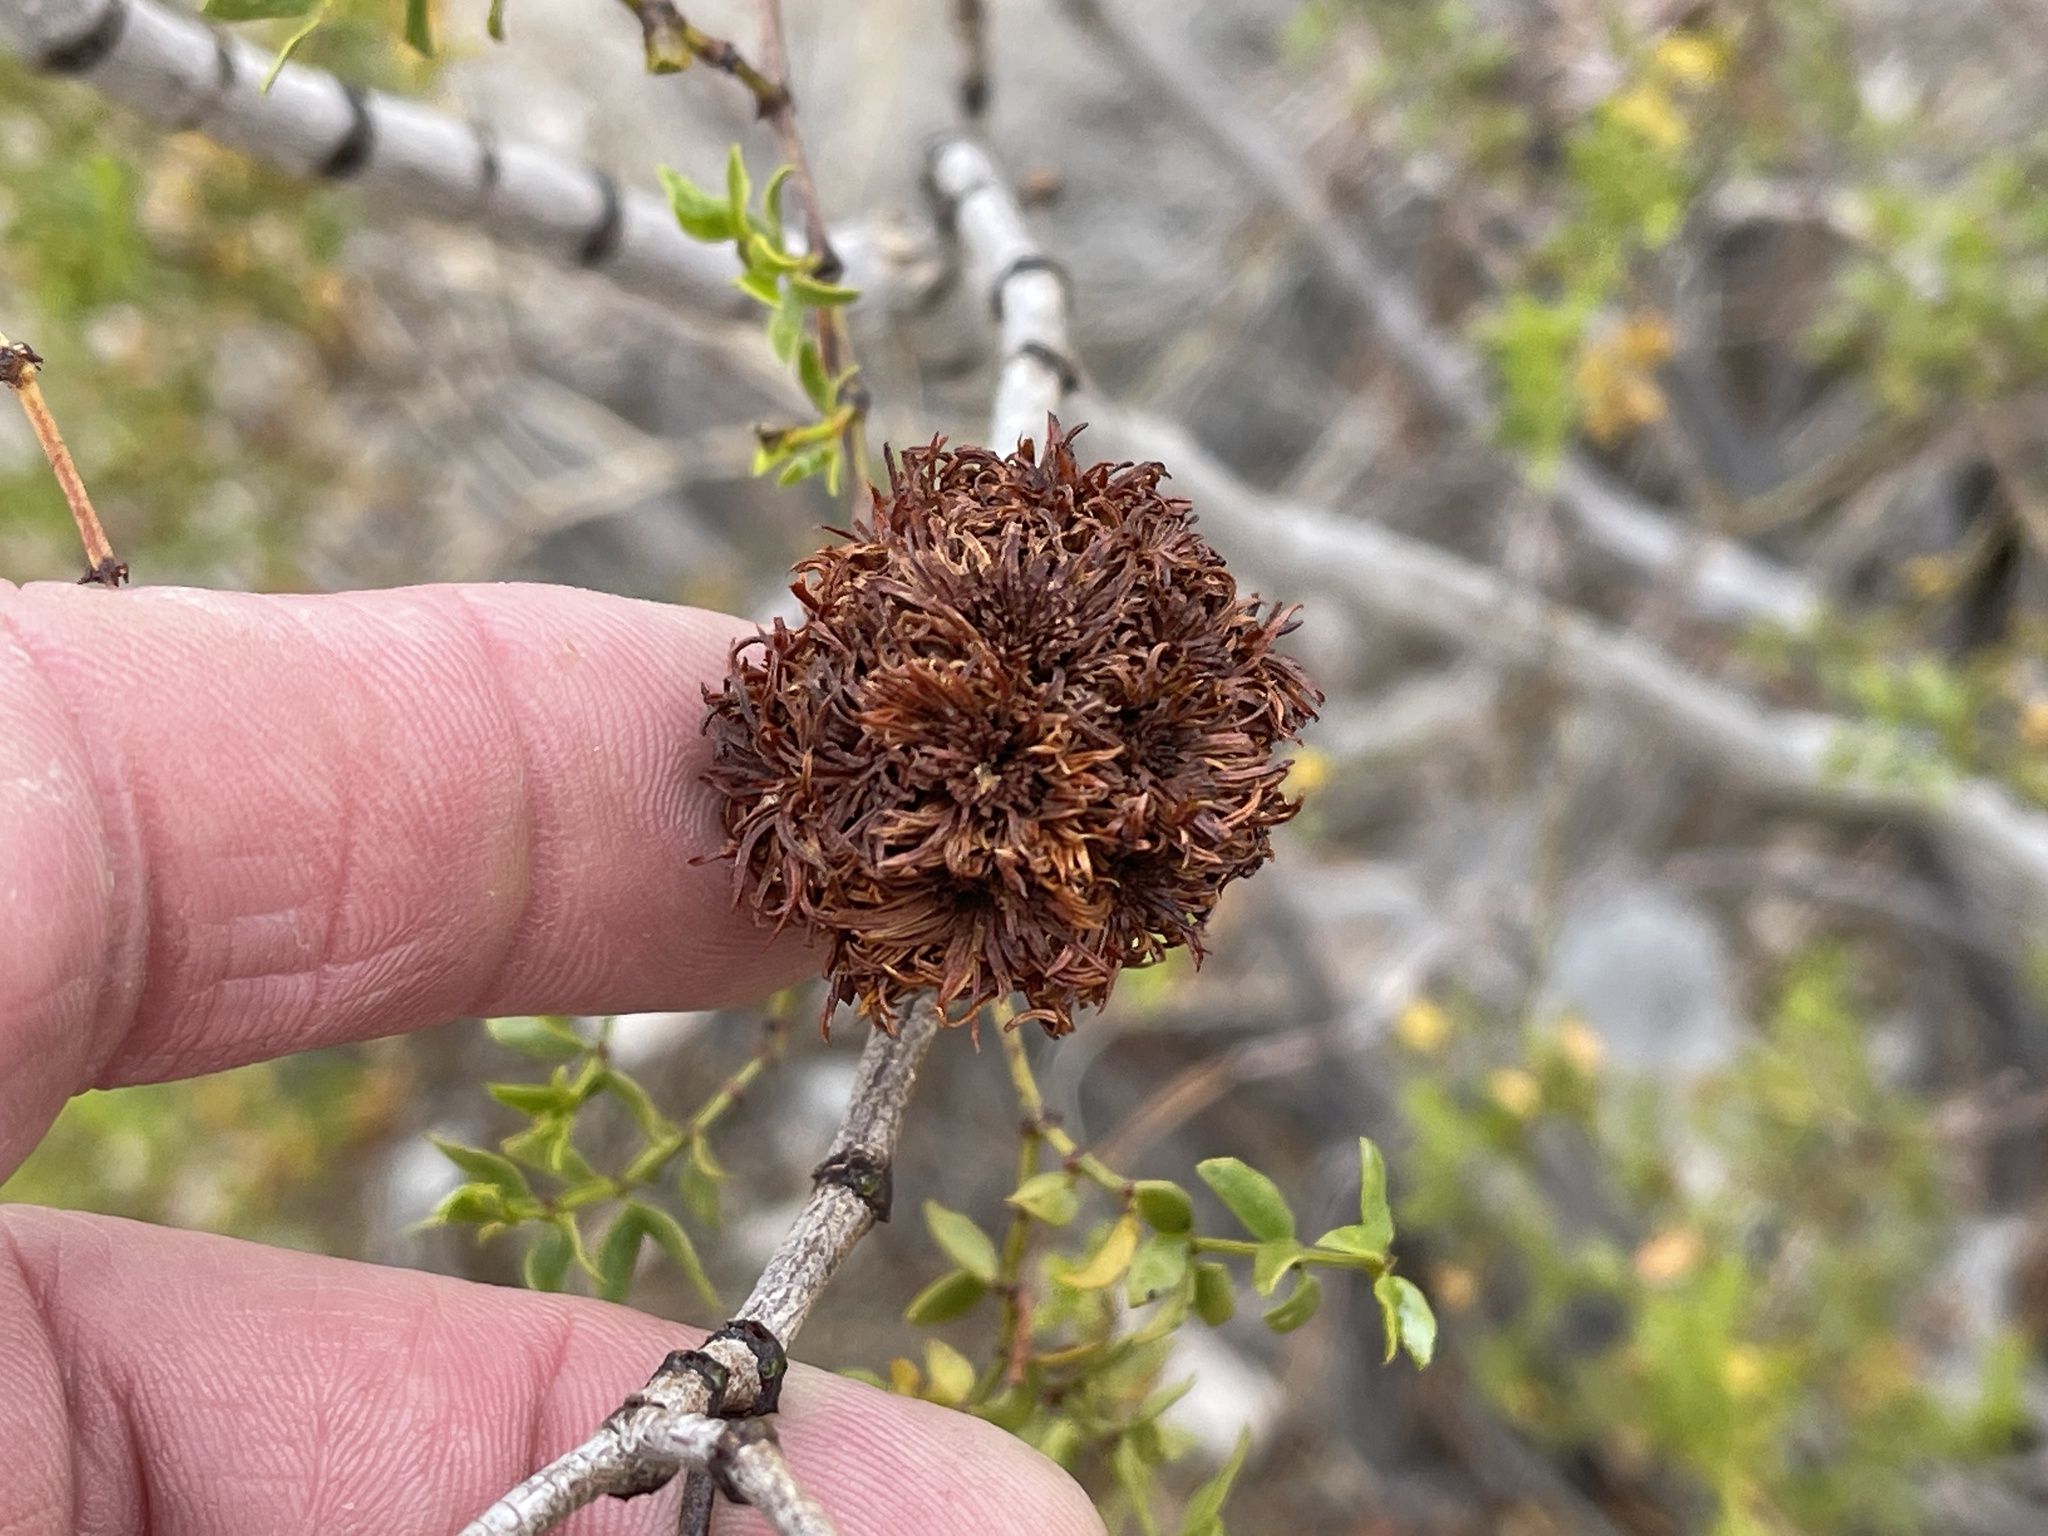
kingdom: Animalia
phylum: Arthropoda
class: Insecta
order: Diptera
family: Cecidomyiidae
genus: Asphondylia
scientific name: Asphondylia auripila
